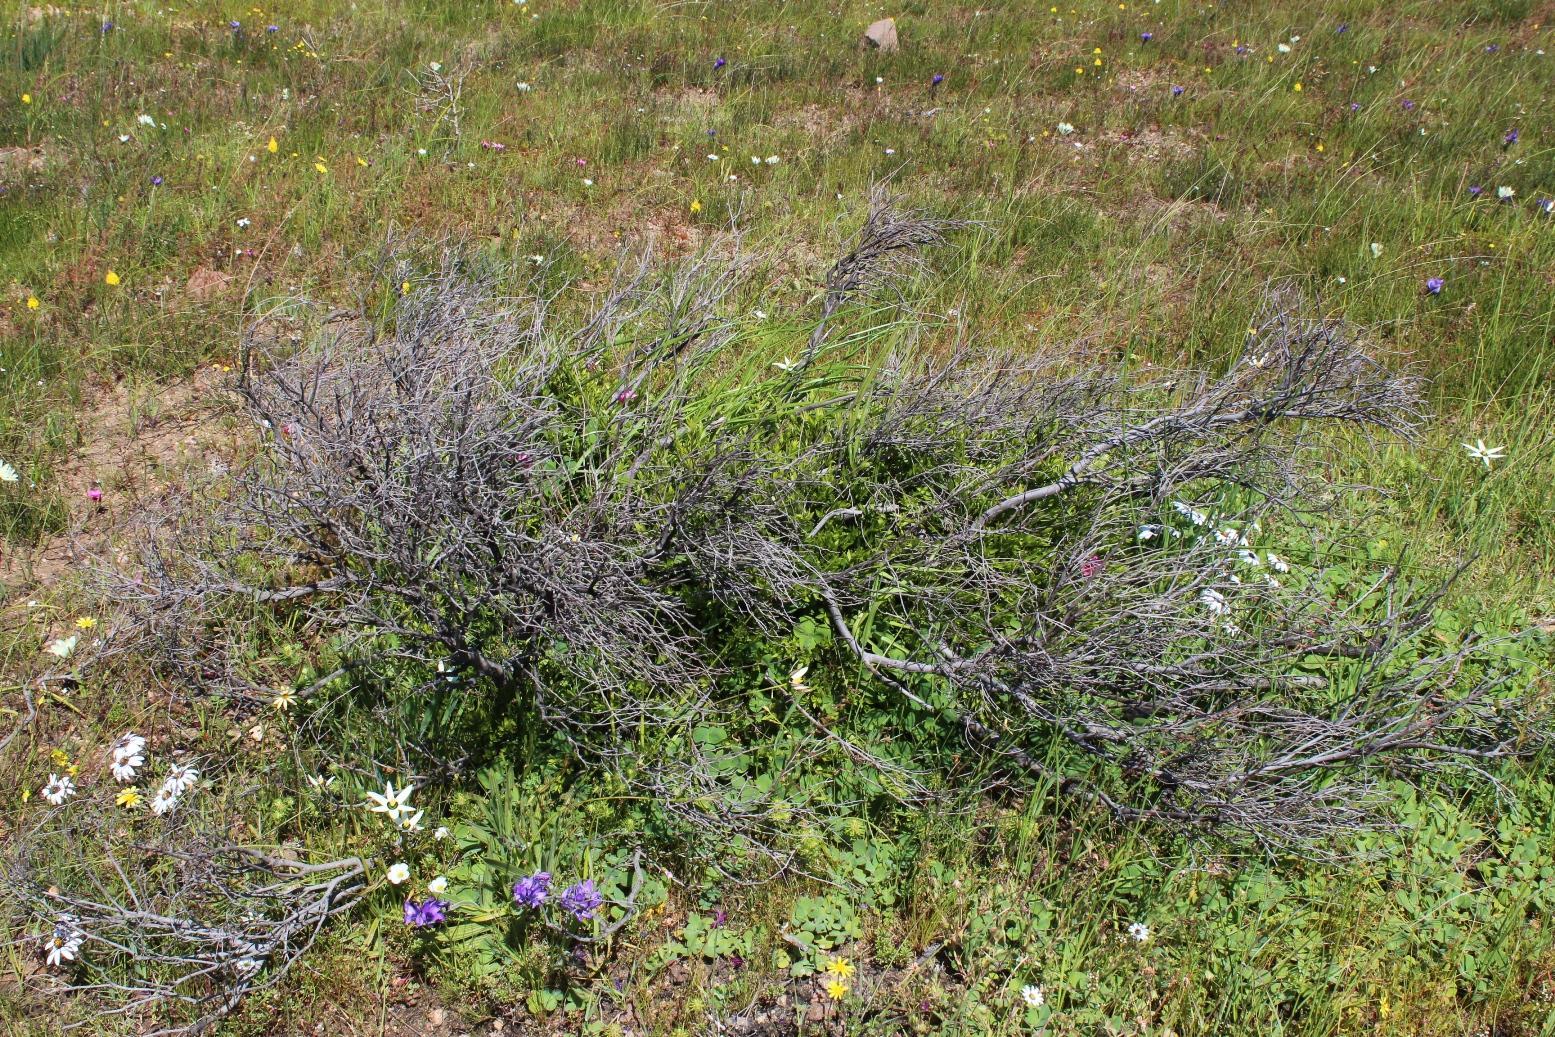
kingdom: Plantae
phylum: Tracheophyta
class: Magnoliopsida
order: Ericales
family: Ebenaceae
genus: Diospyros
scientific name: Diospyros glabra
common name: Fynbos star apple
